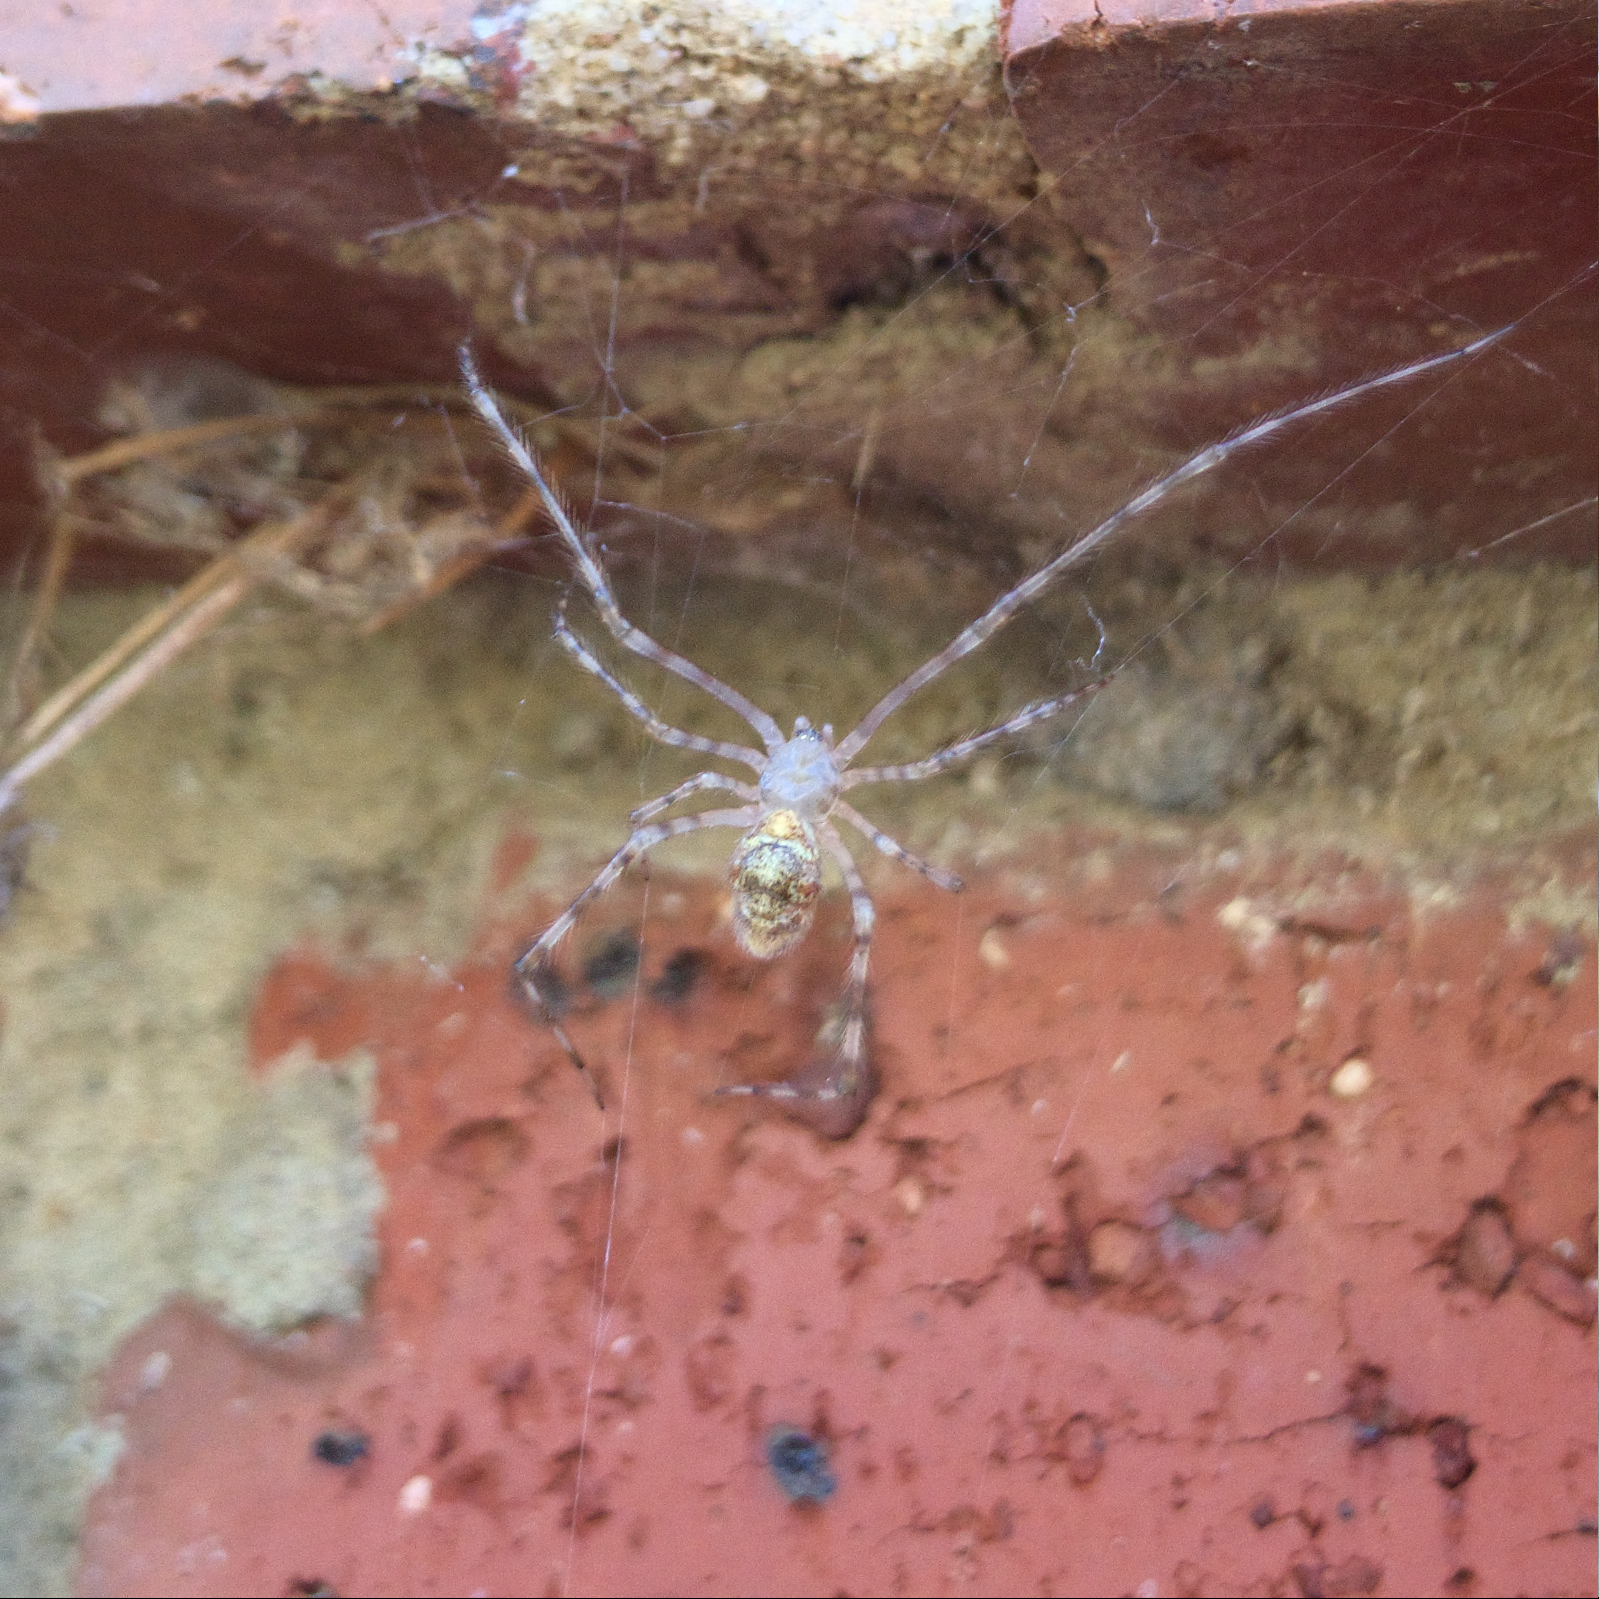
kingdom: Animalia
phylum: Arthropoda
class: Arachnida
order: Araneae
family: Theridiidae
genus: Cryptachaea
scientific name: Cryptachaea gigantipes
